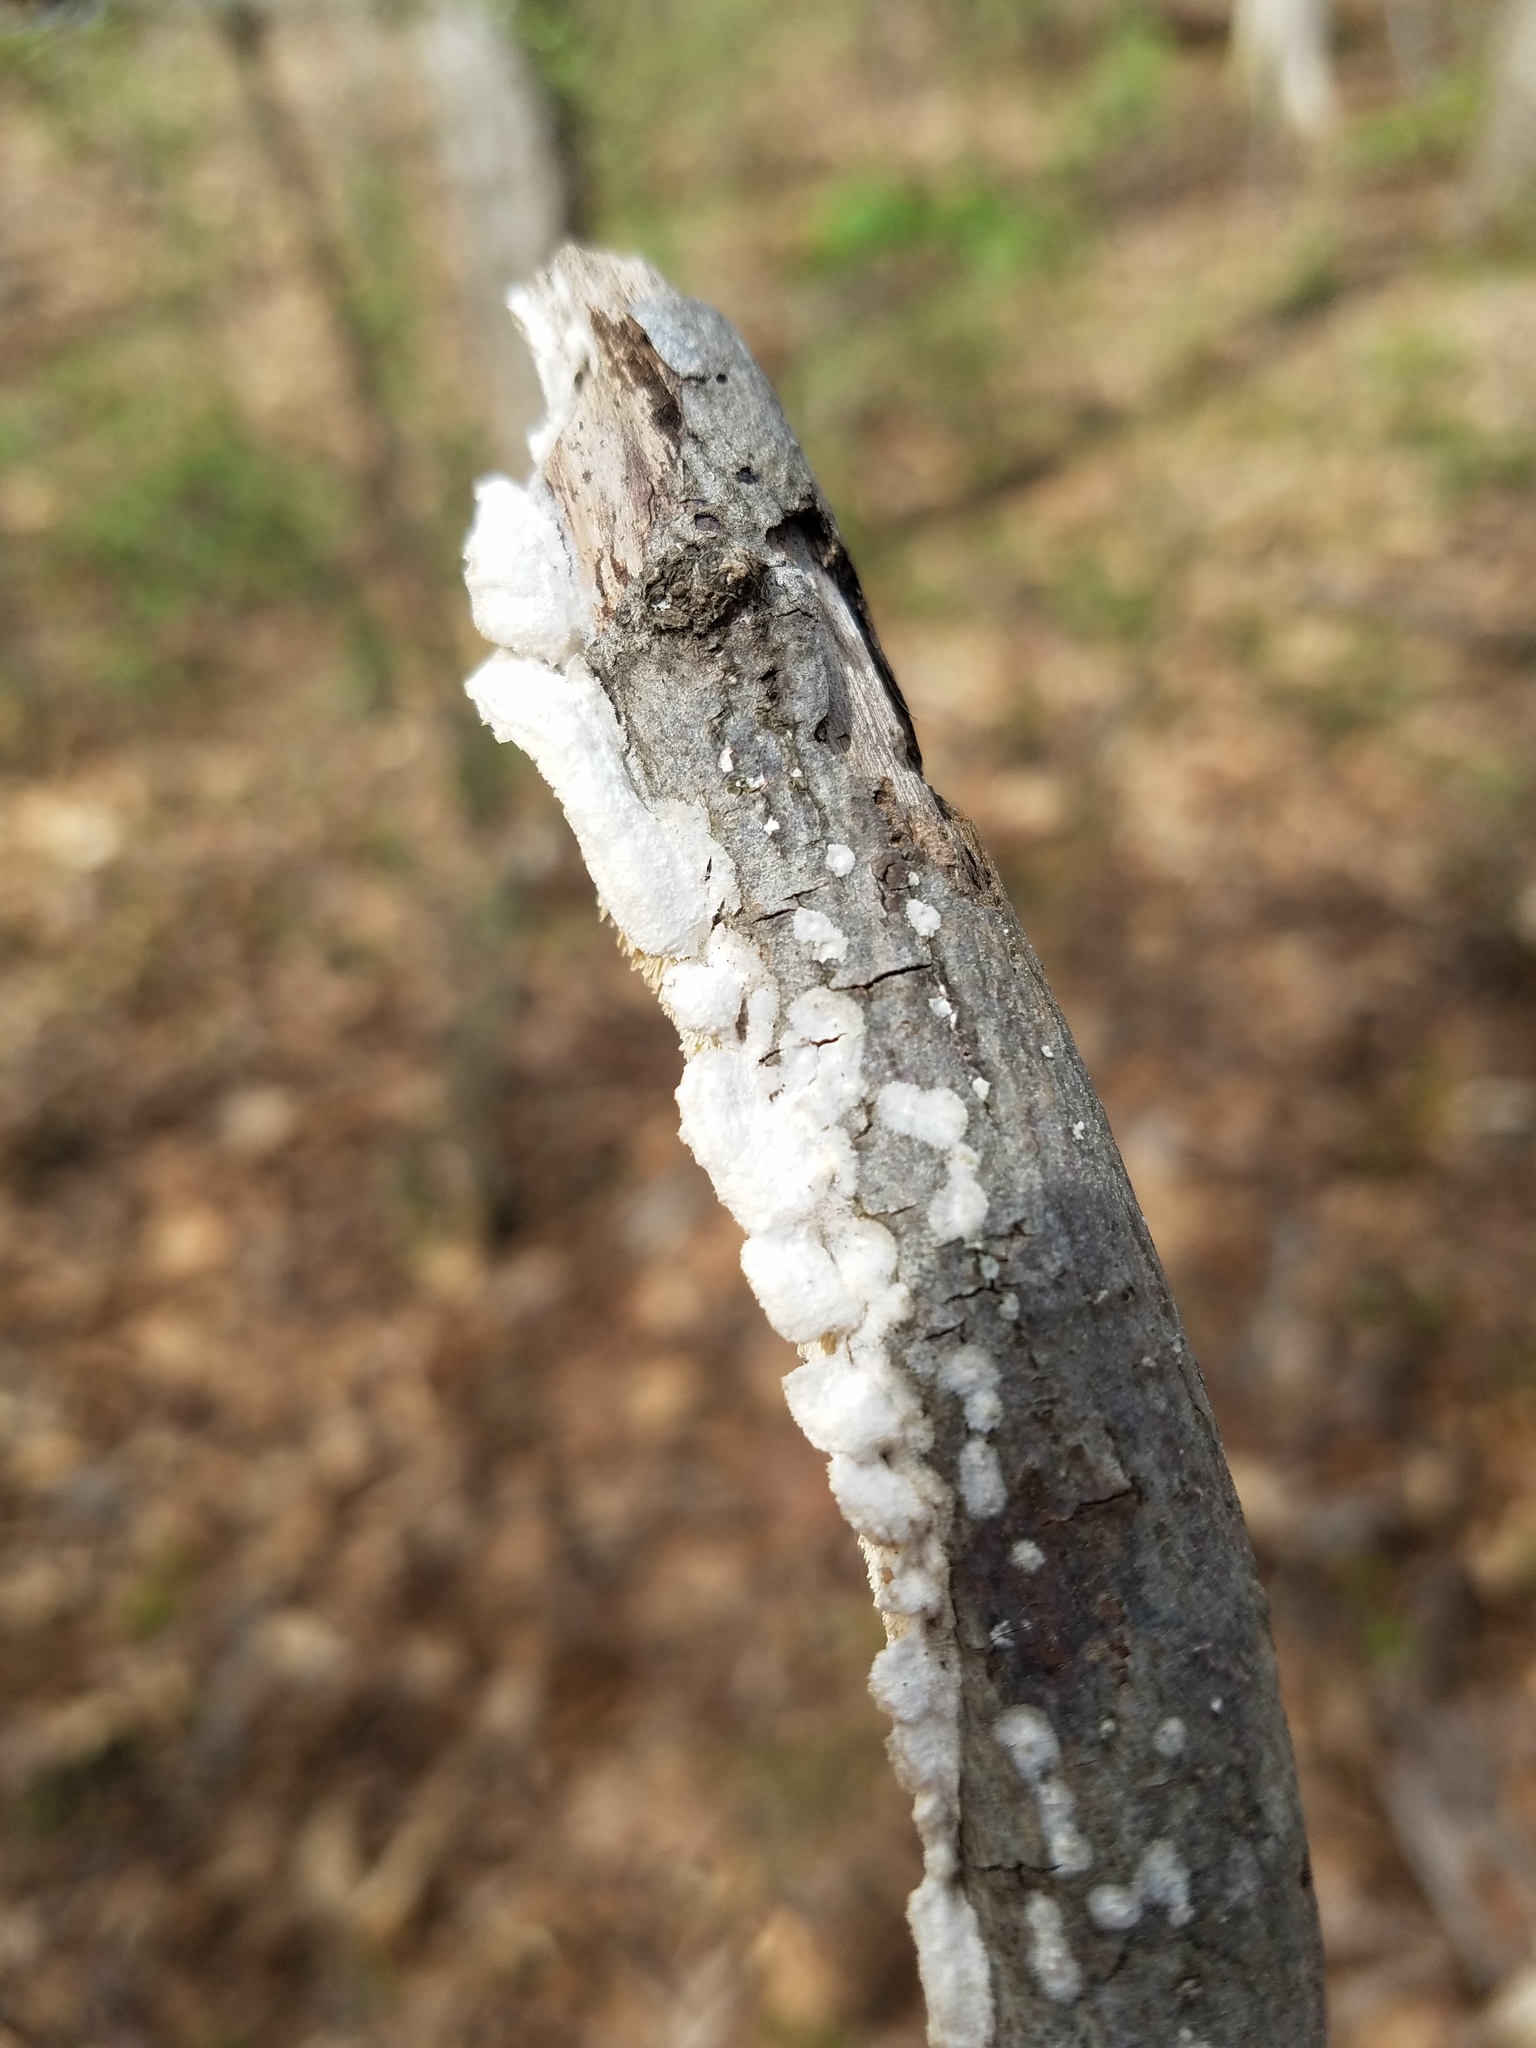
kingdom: Fungi
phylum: Basidiomycota
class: Agaricomycetes
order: Polyporales
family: Irpicaceae
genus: Irpex
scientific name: Irpex lacteus
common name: Milk-white toothed polypore
